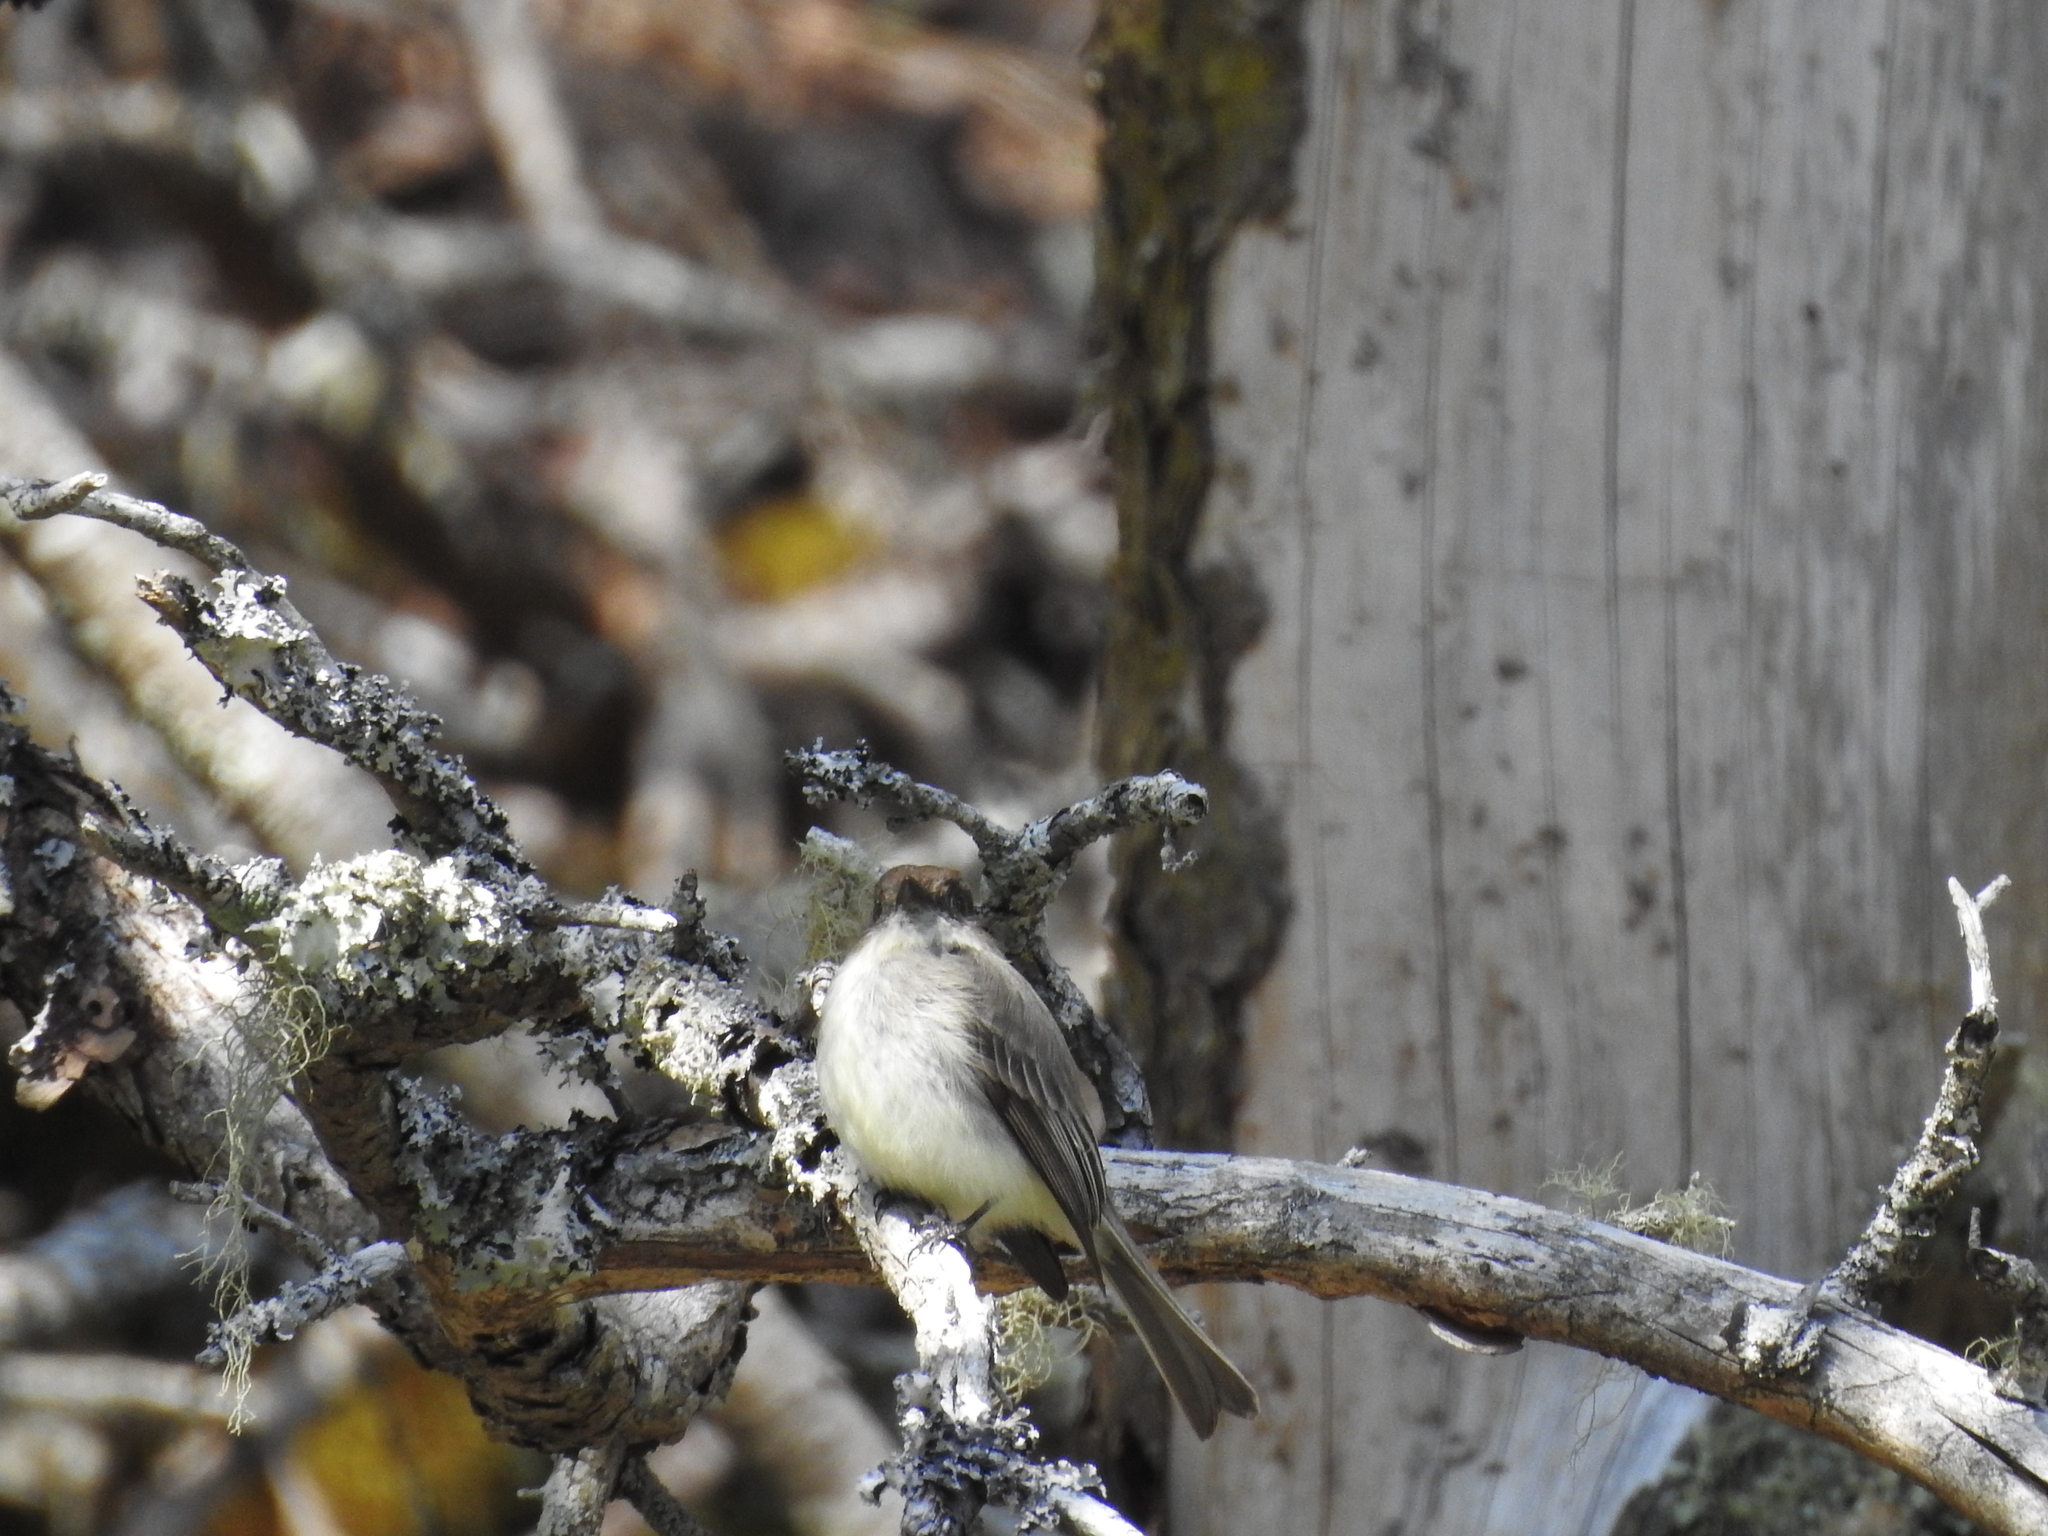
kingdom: Animalia
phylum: Chordata
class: Aves
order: Passeriformes
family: Tyrannidae
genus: Sayornis
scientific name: Sayornis phoebe
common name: Eastern phoebe
